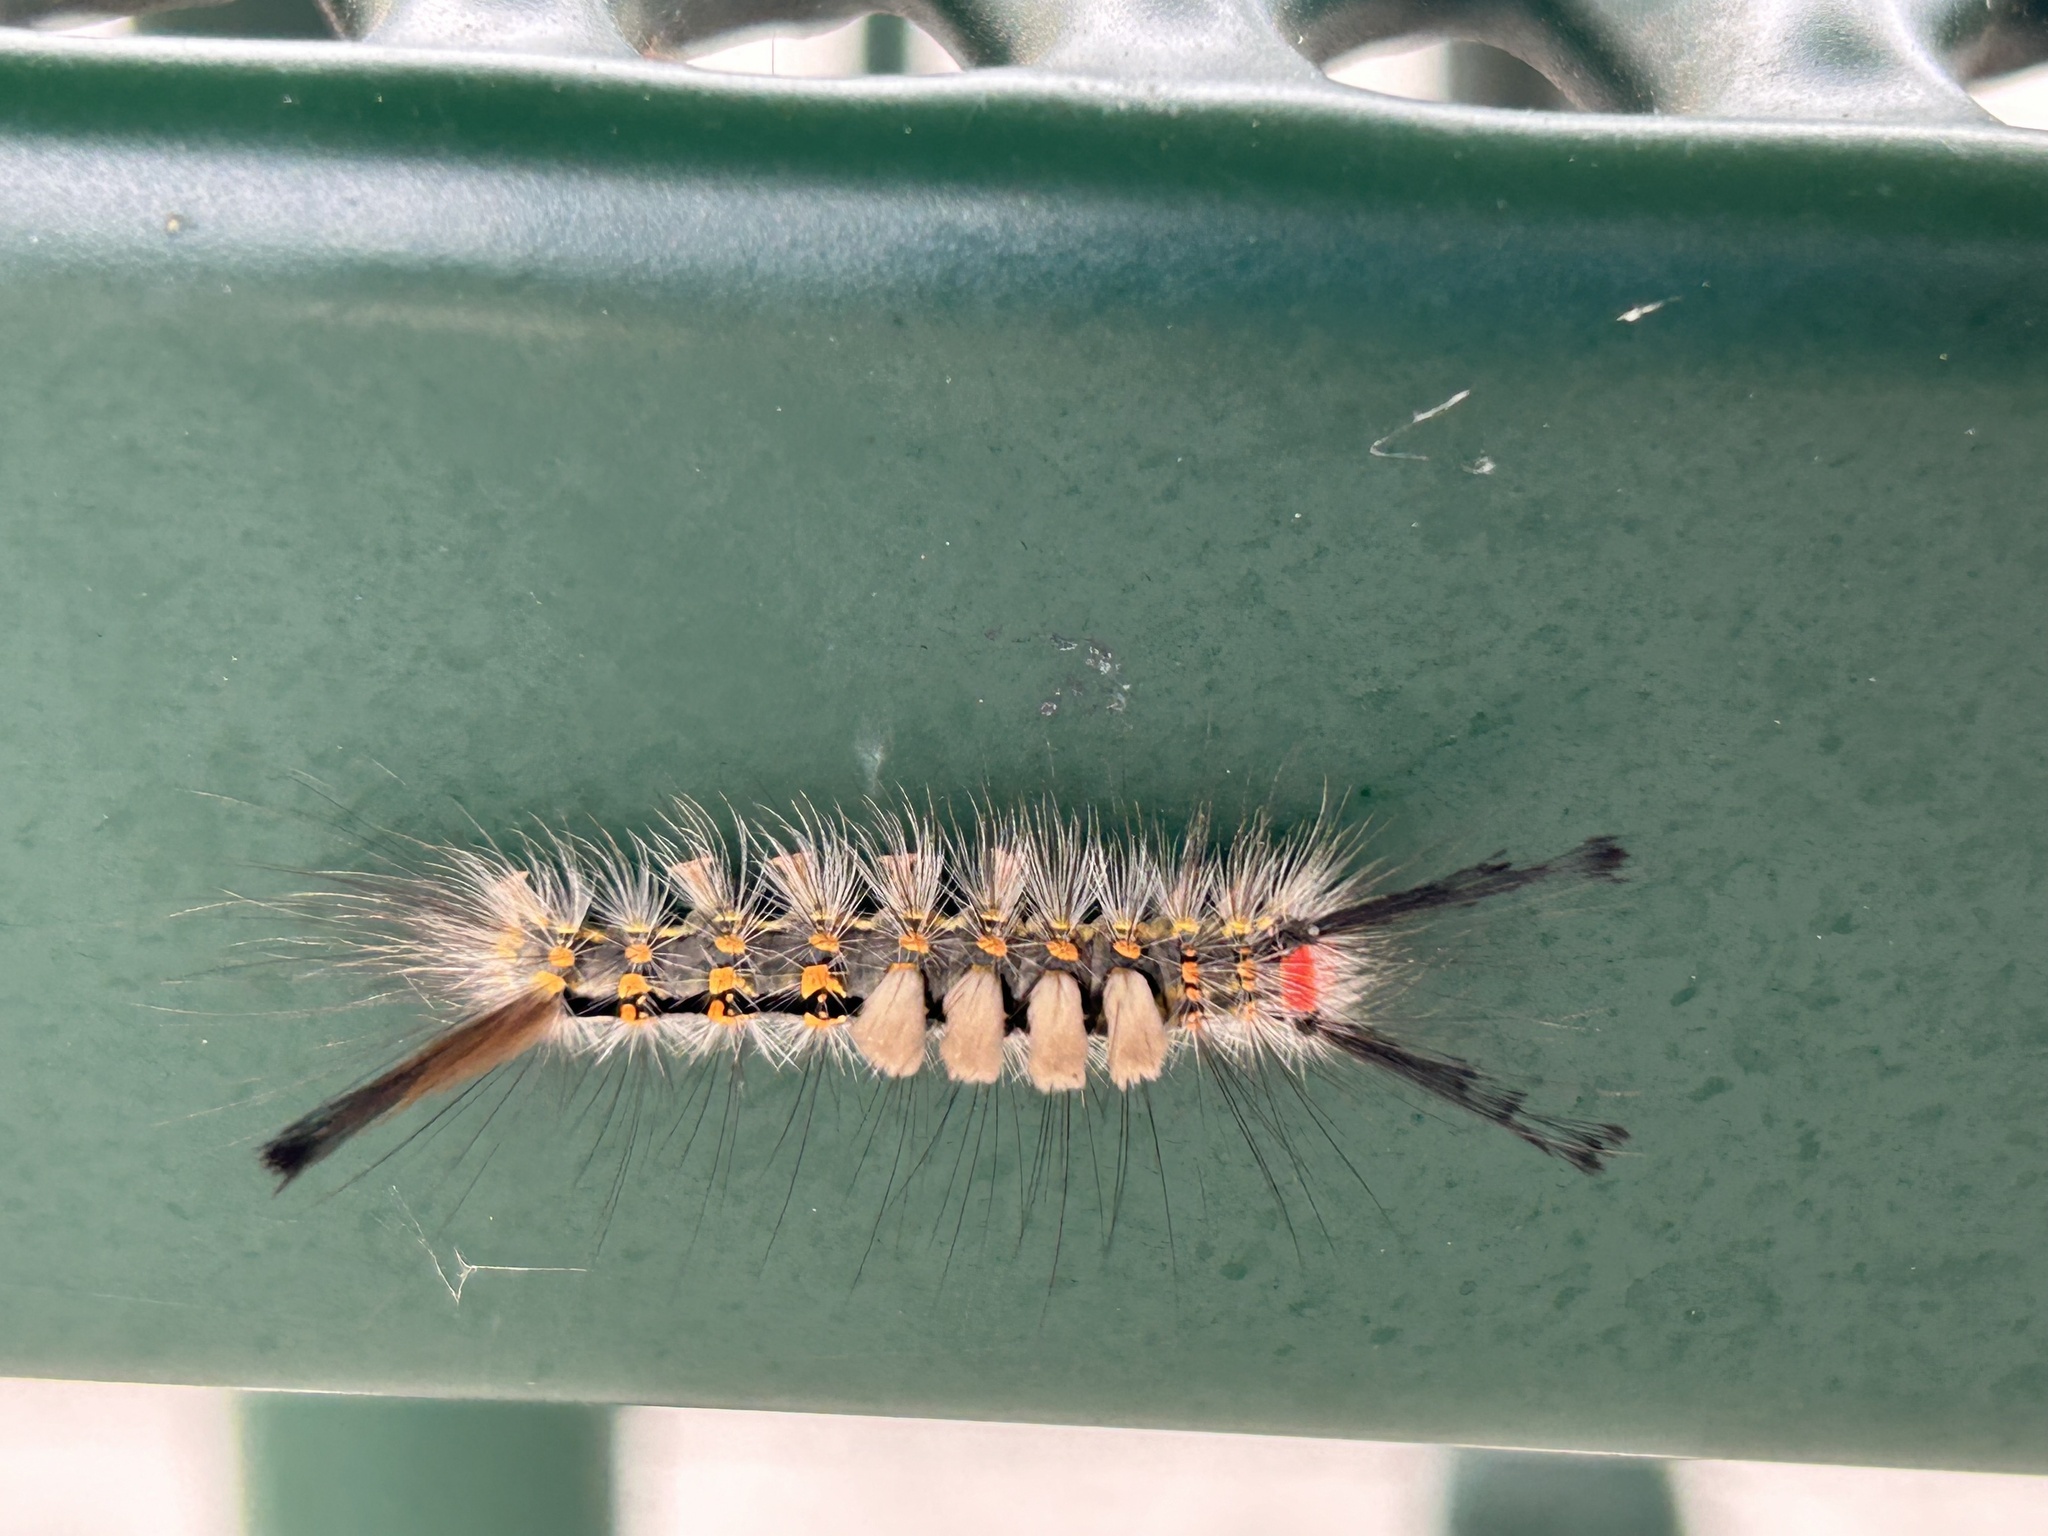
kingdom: Animalia
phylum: Arthropoda
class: Insecta
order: Lepidoptera
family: Erebidae
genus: Orgyia
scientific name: Orgyia detrita
